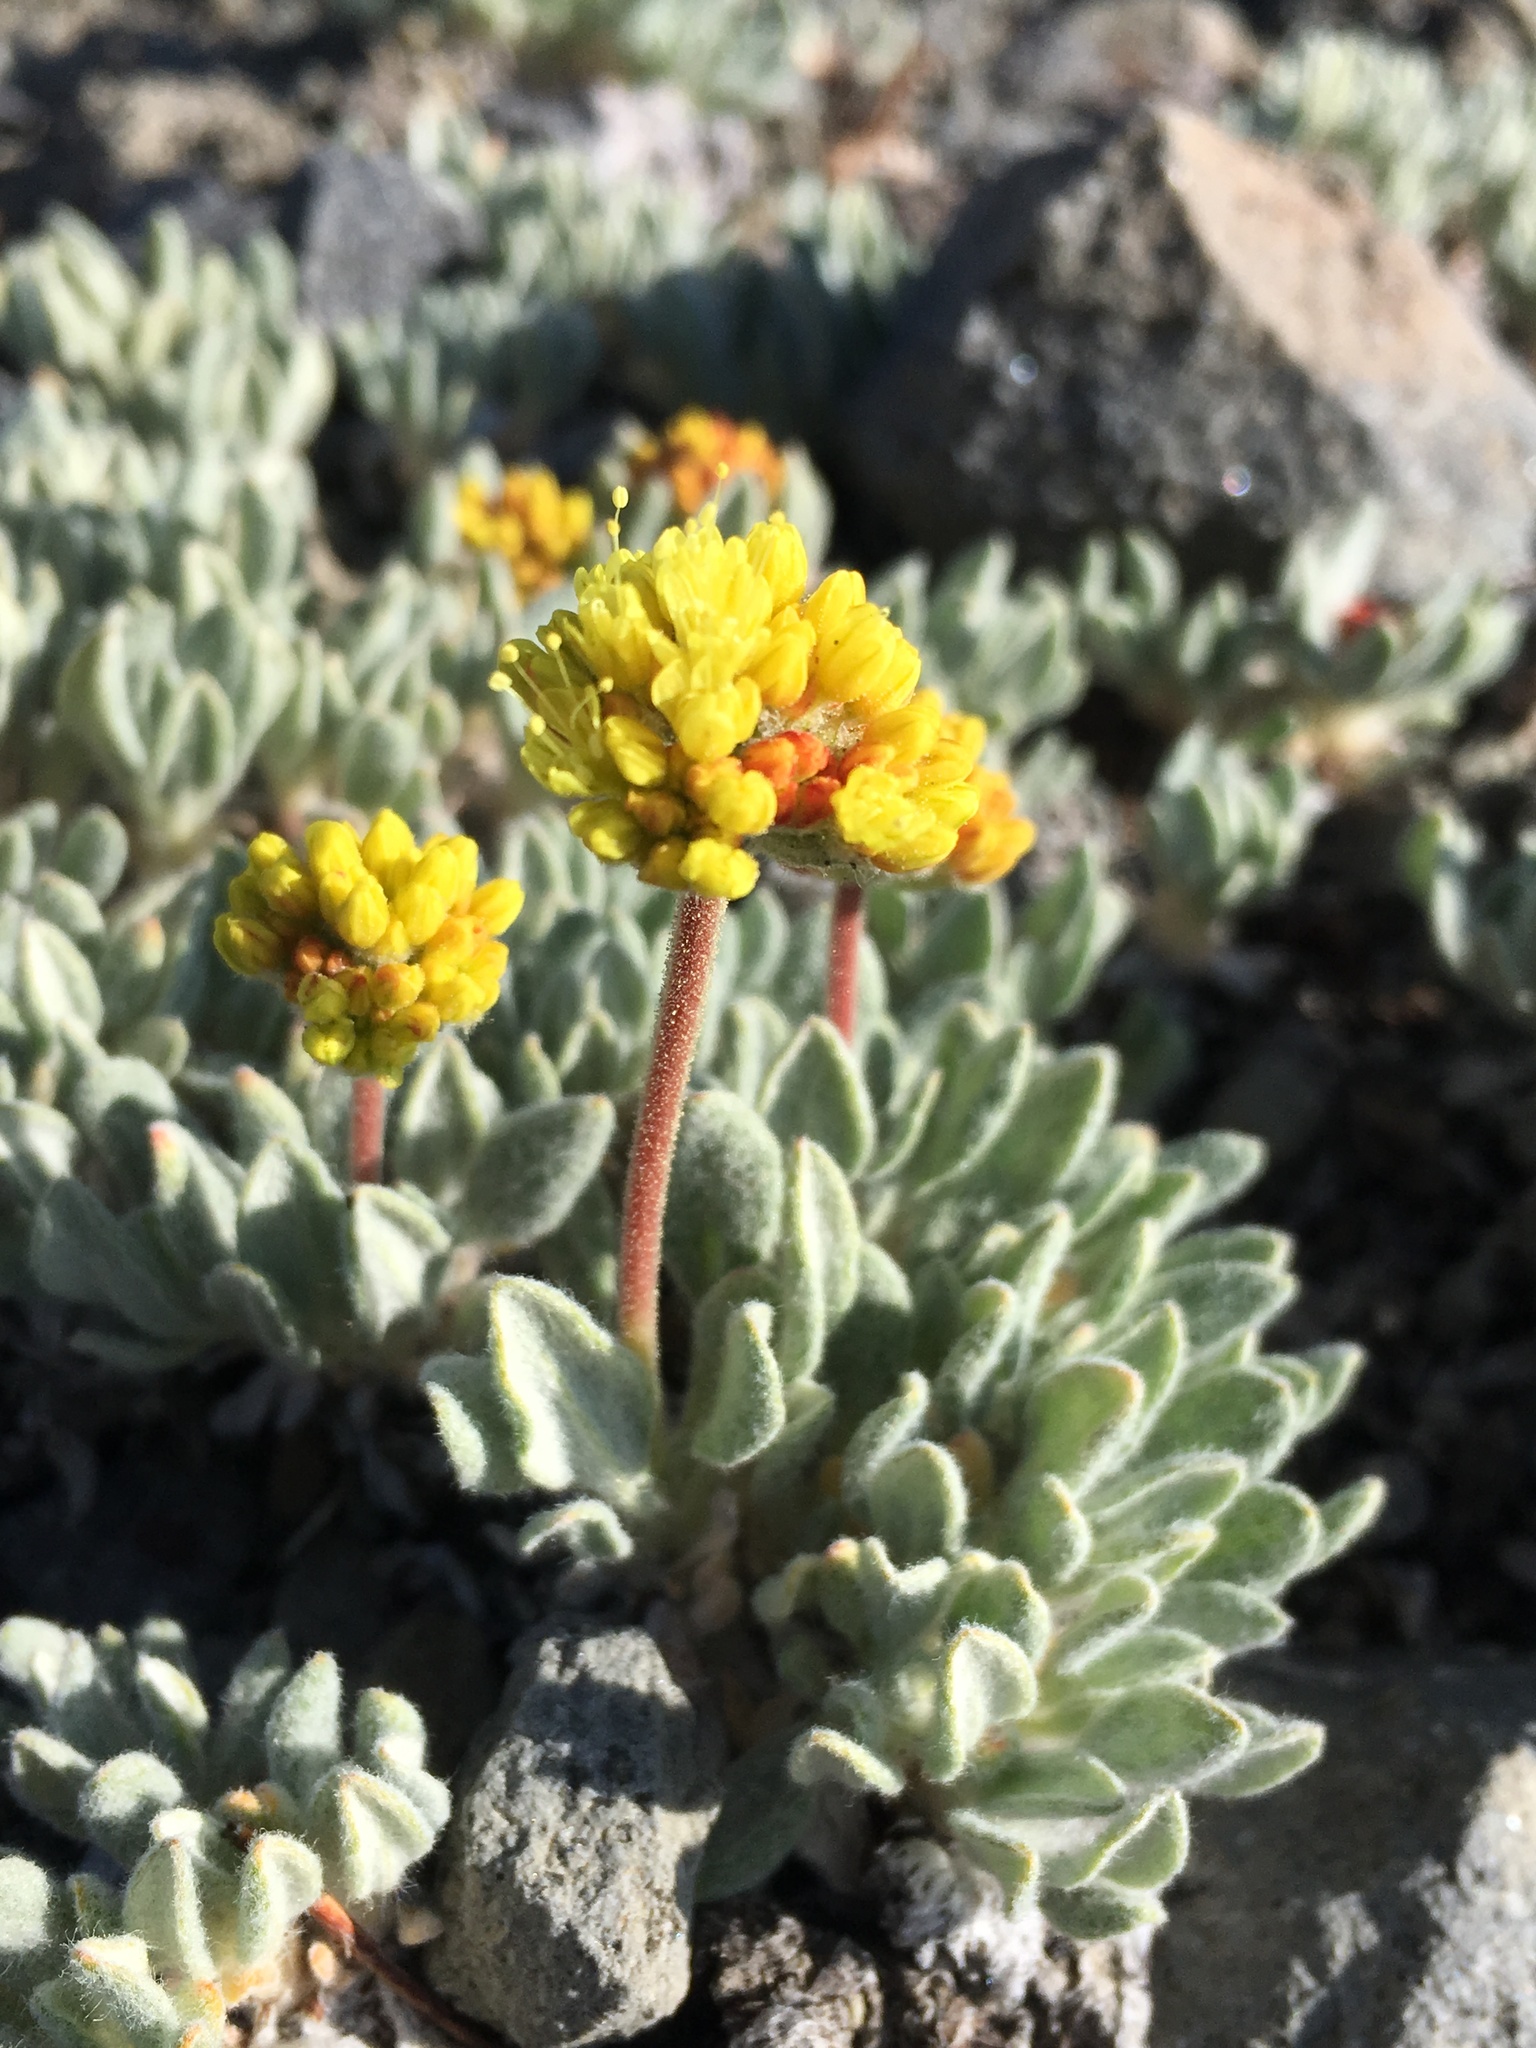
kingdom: Plantae
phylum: Tracheophyta
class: Magnoliopsida
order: Caryophyllales
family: Polygonaceae
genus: Eriogonum
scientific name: Eriogonum rosense
